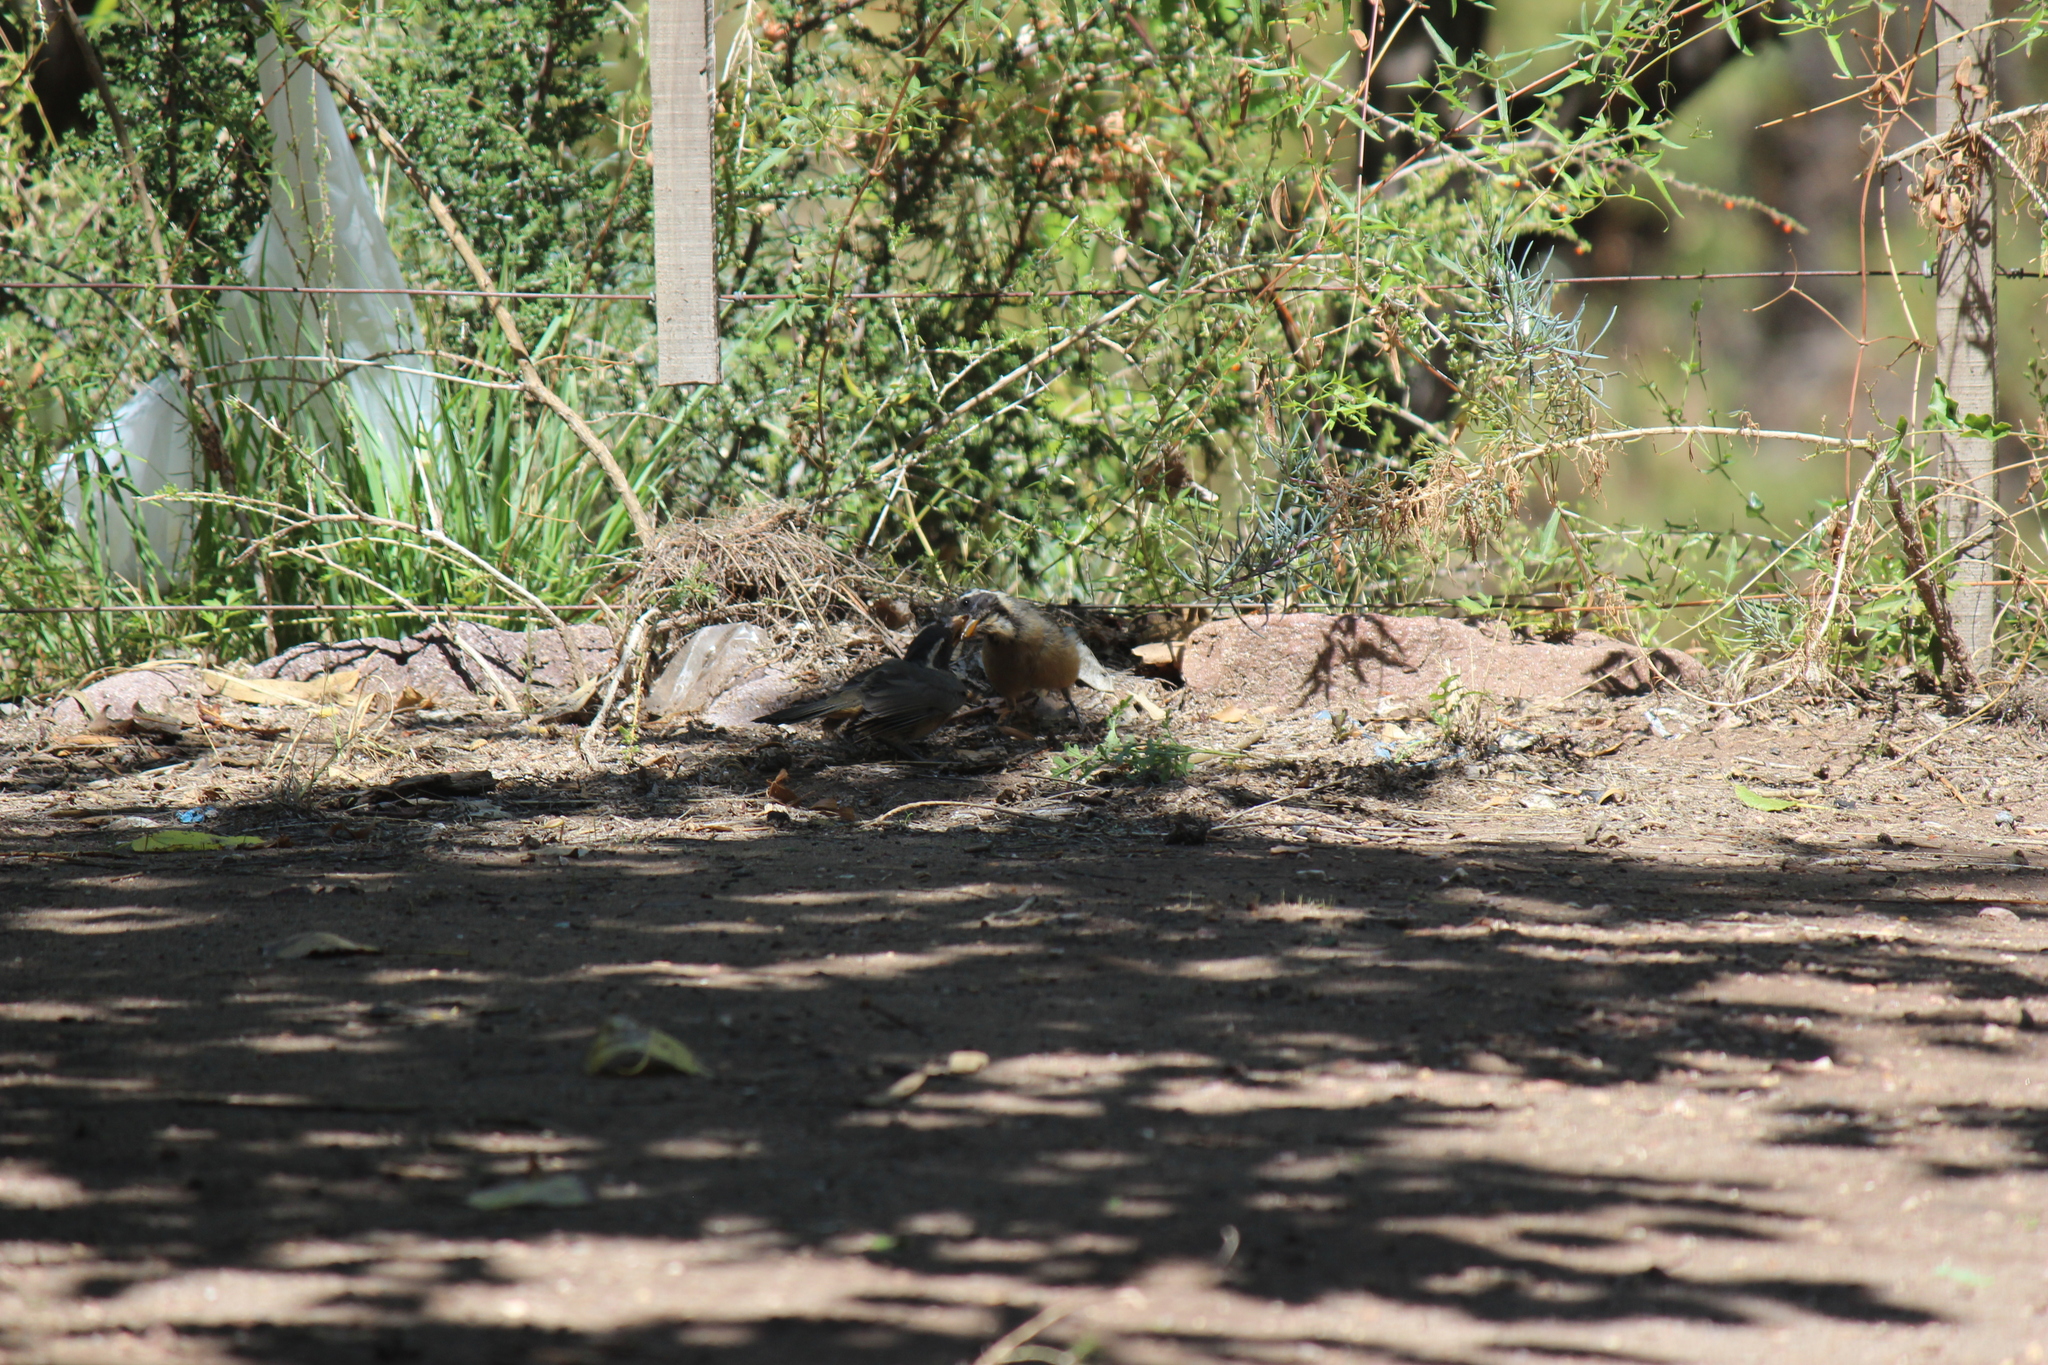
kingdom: Animalia
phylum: Chordata
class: Aves
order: Passeriformes
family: Thraupidae
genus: Saltator
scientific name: Saltator aurantiirostris
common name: Golden-billed saltator
